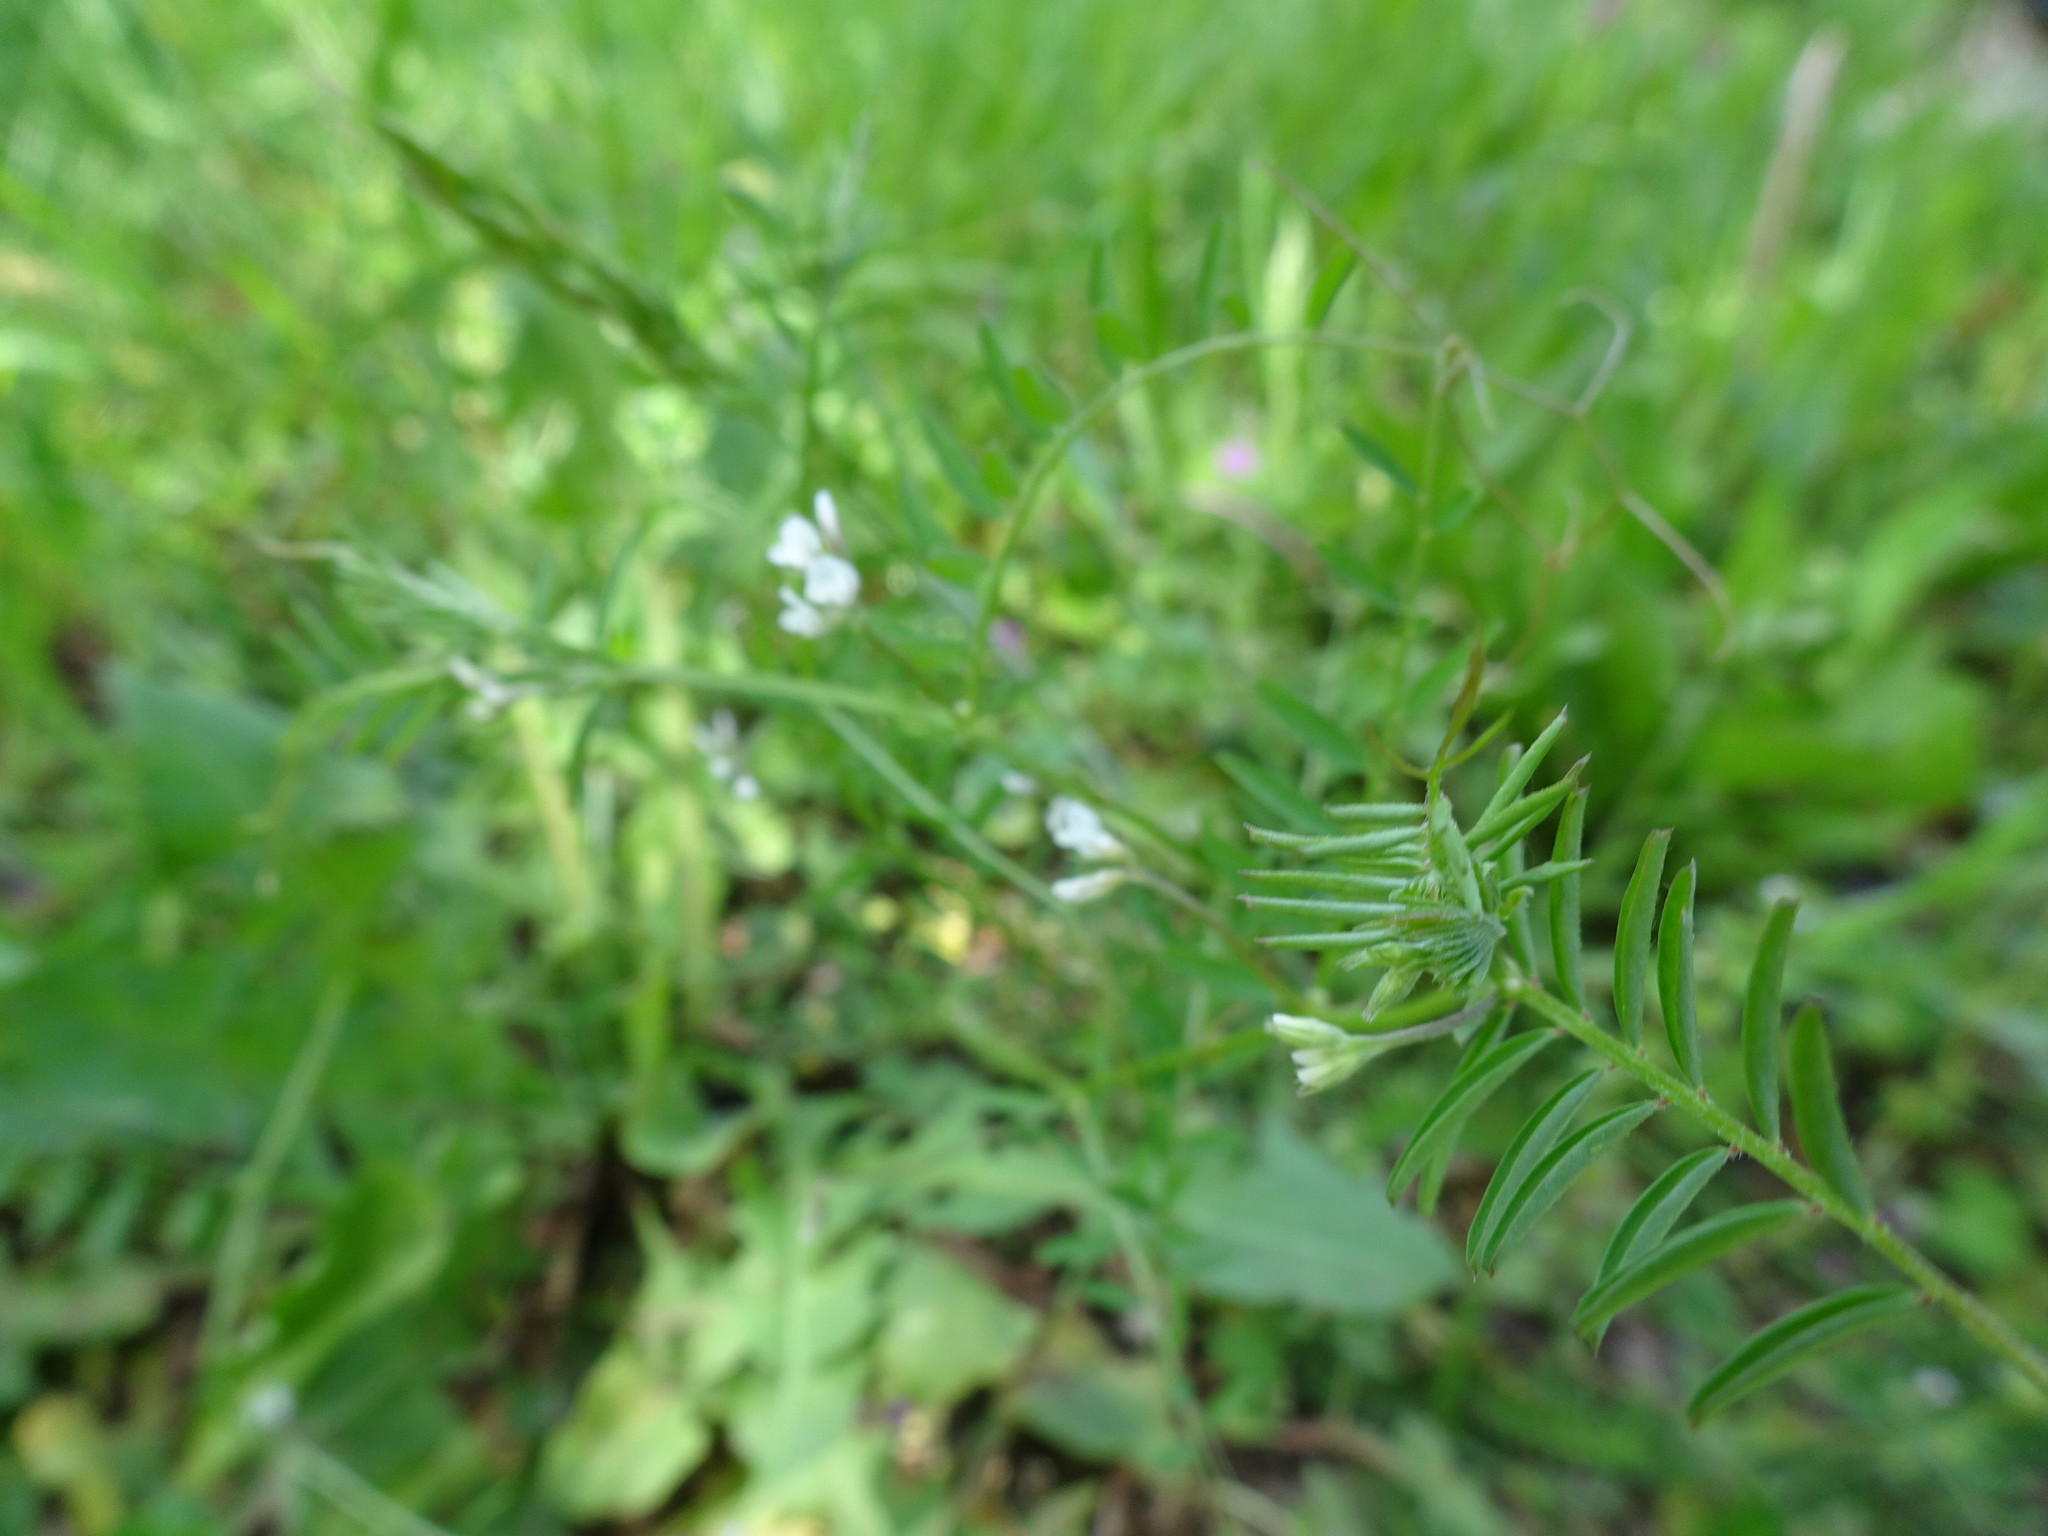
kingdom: Plantae
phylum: Tracheophyta
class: Magnoliopsida
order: Fabales
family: Fabaceae
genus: Vicia
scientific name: Vicia hirsuta
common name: Tiny vetch
